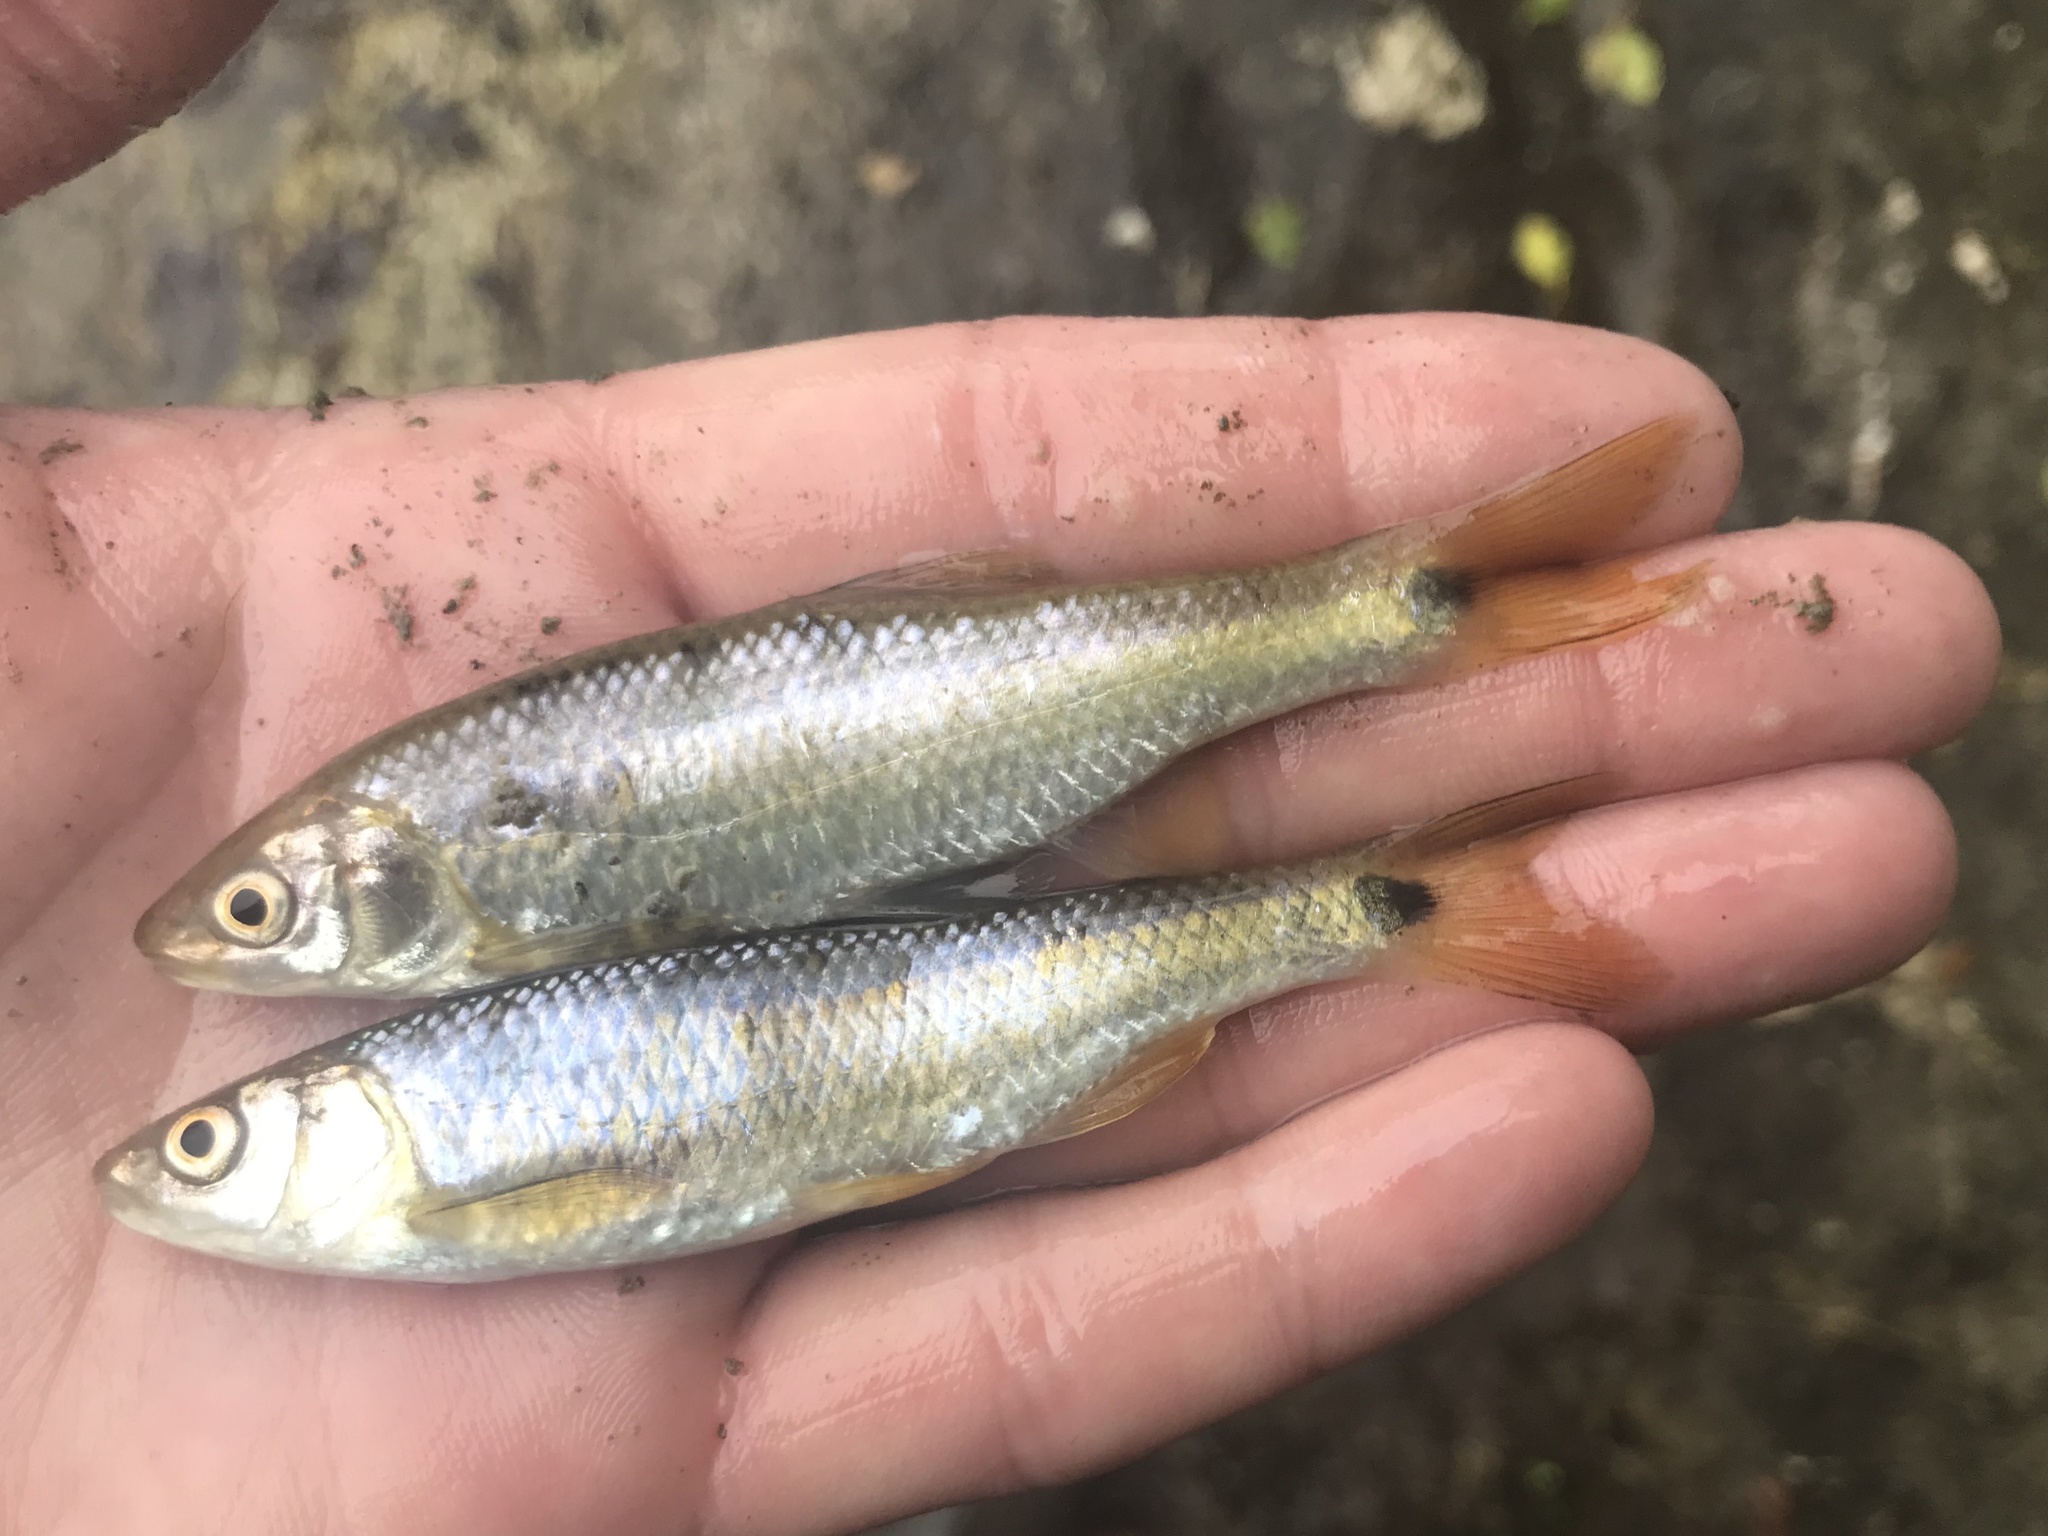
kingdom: Animalia
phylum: Chordata
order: Cypriniformes
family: Cyprinidae
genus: Cyprinella
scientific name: Cyprinella venusta
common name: Blacktail shiner
